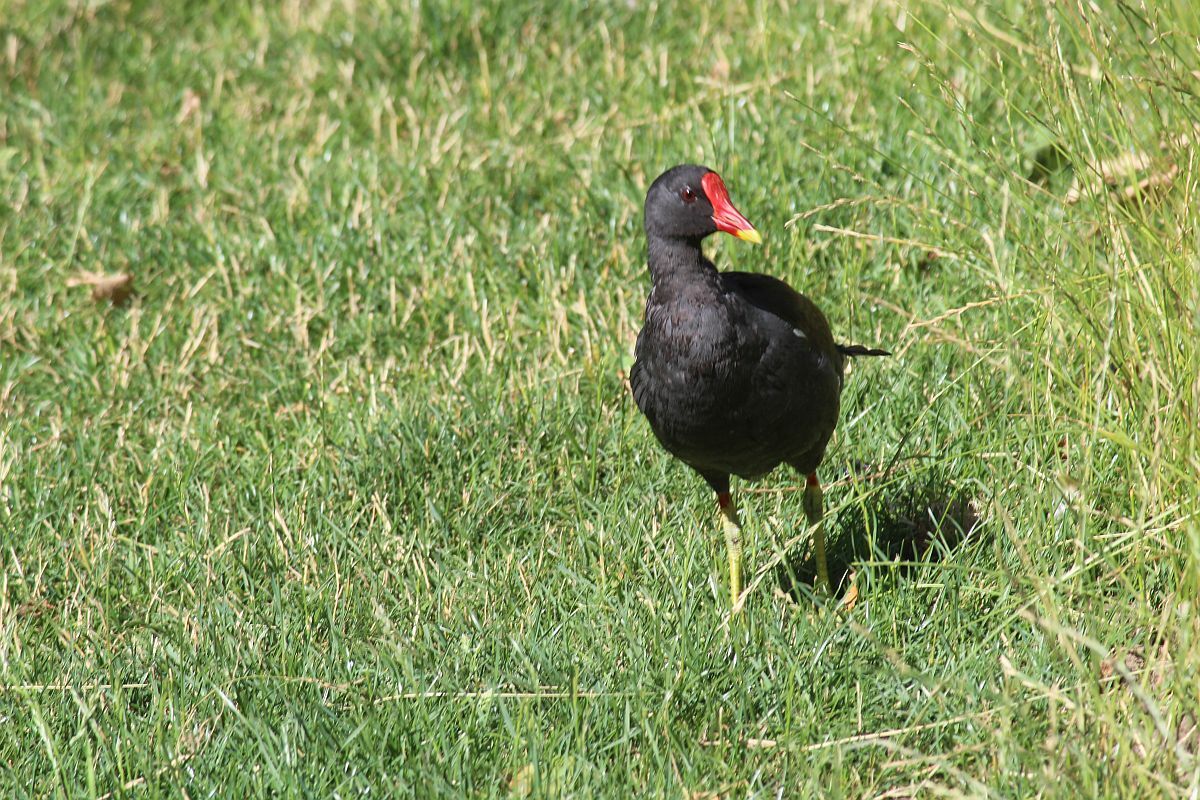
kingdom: Animalia
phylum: Chordata
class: Aves
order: Gruiformes
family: Rallidae
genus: Gallinula
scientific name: Gallinula chloropus
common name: Common moorhen
